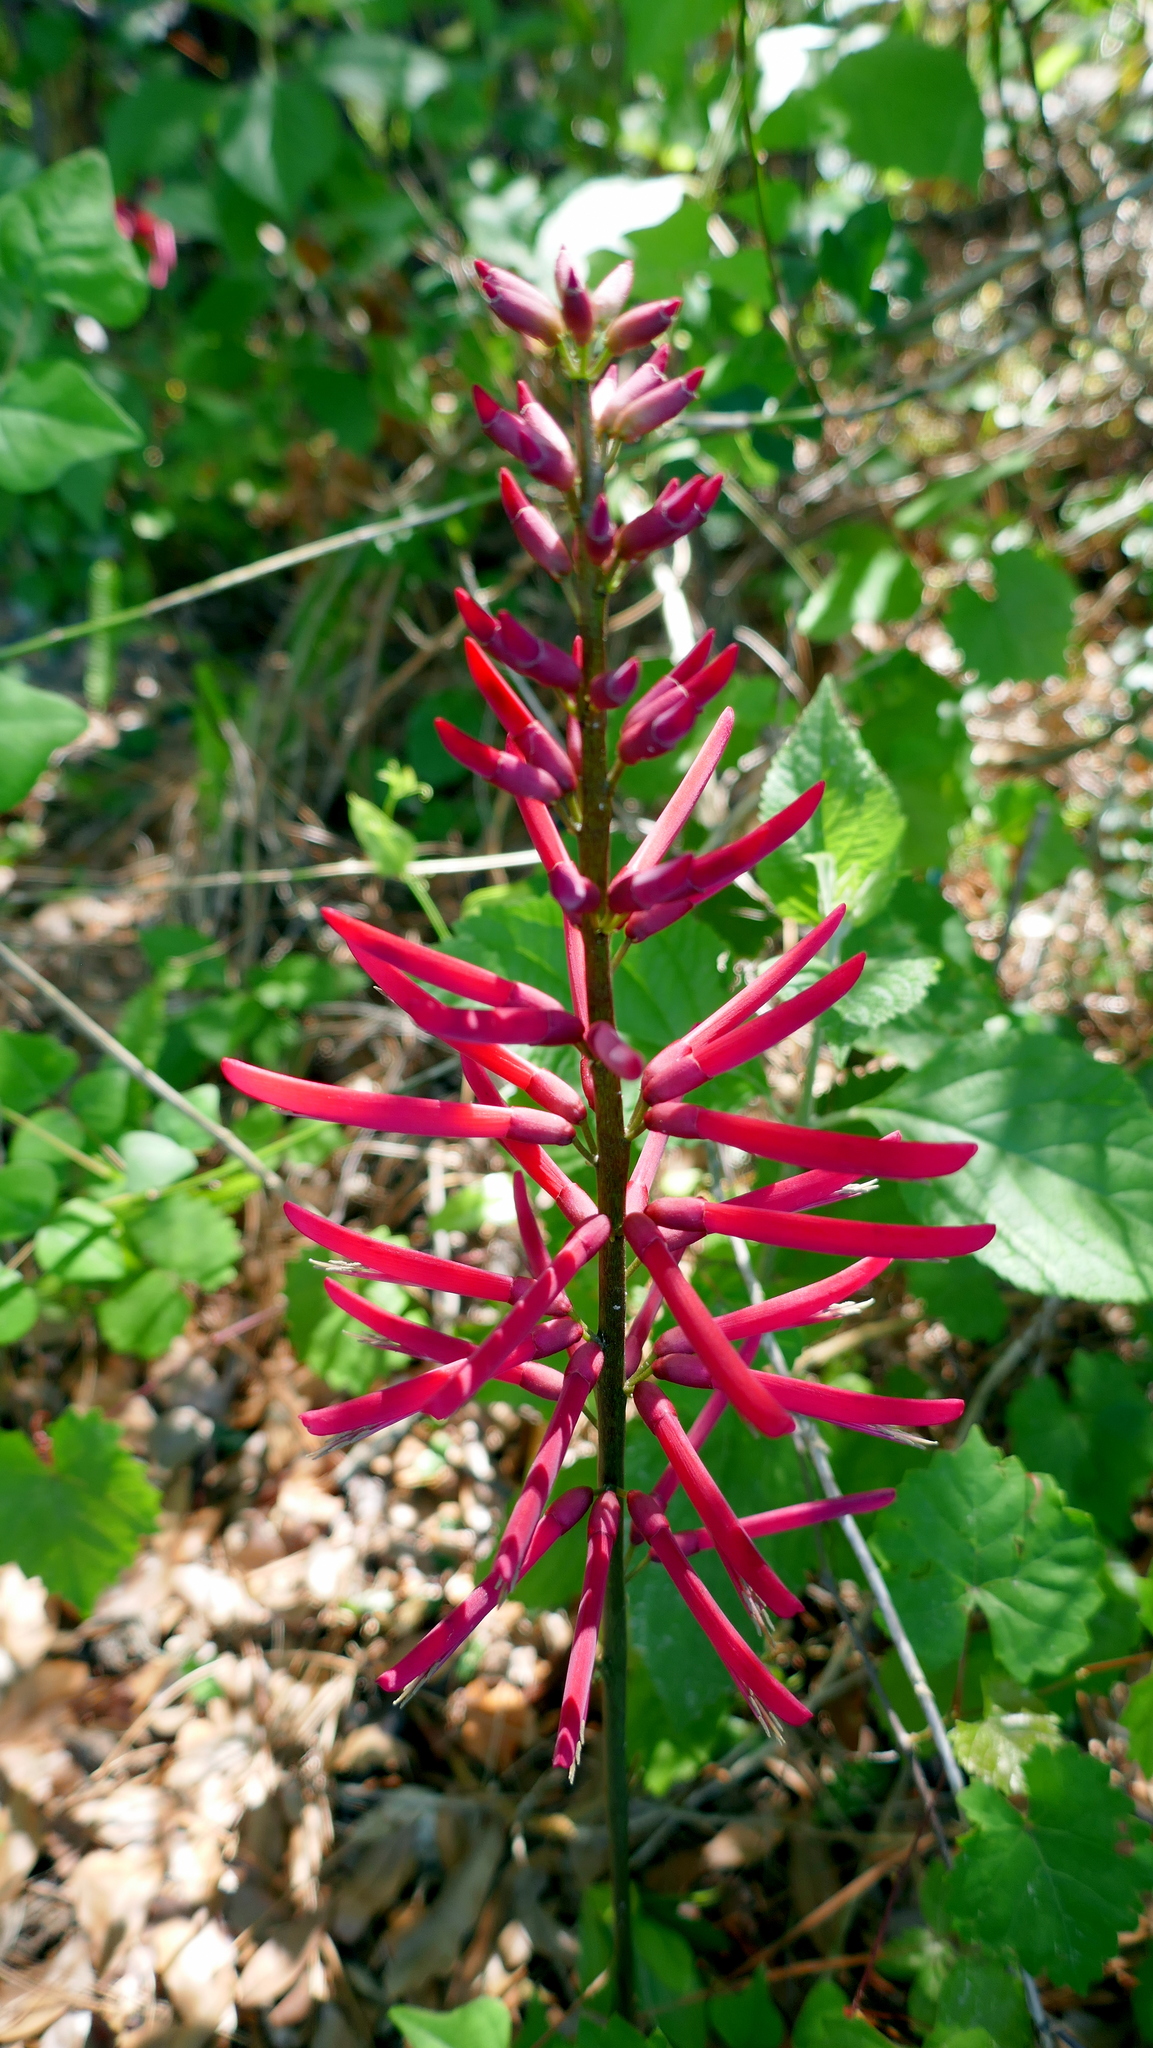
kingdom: Plantae
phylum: Tracheophyta
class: Magnoliopsida
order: Fabales
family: Fabaceae
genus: Erythrina
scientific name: Erythrina herbacea
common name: Coral-bean
